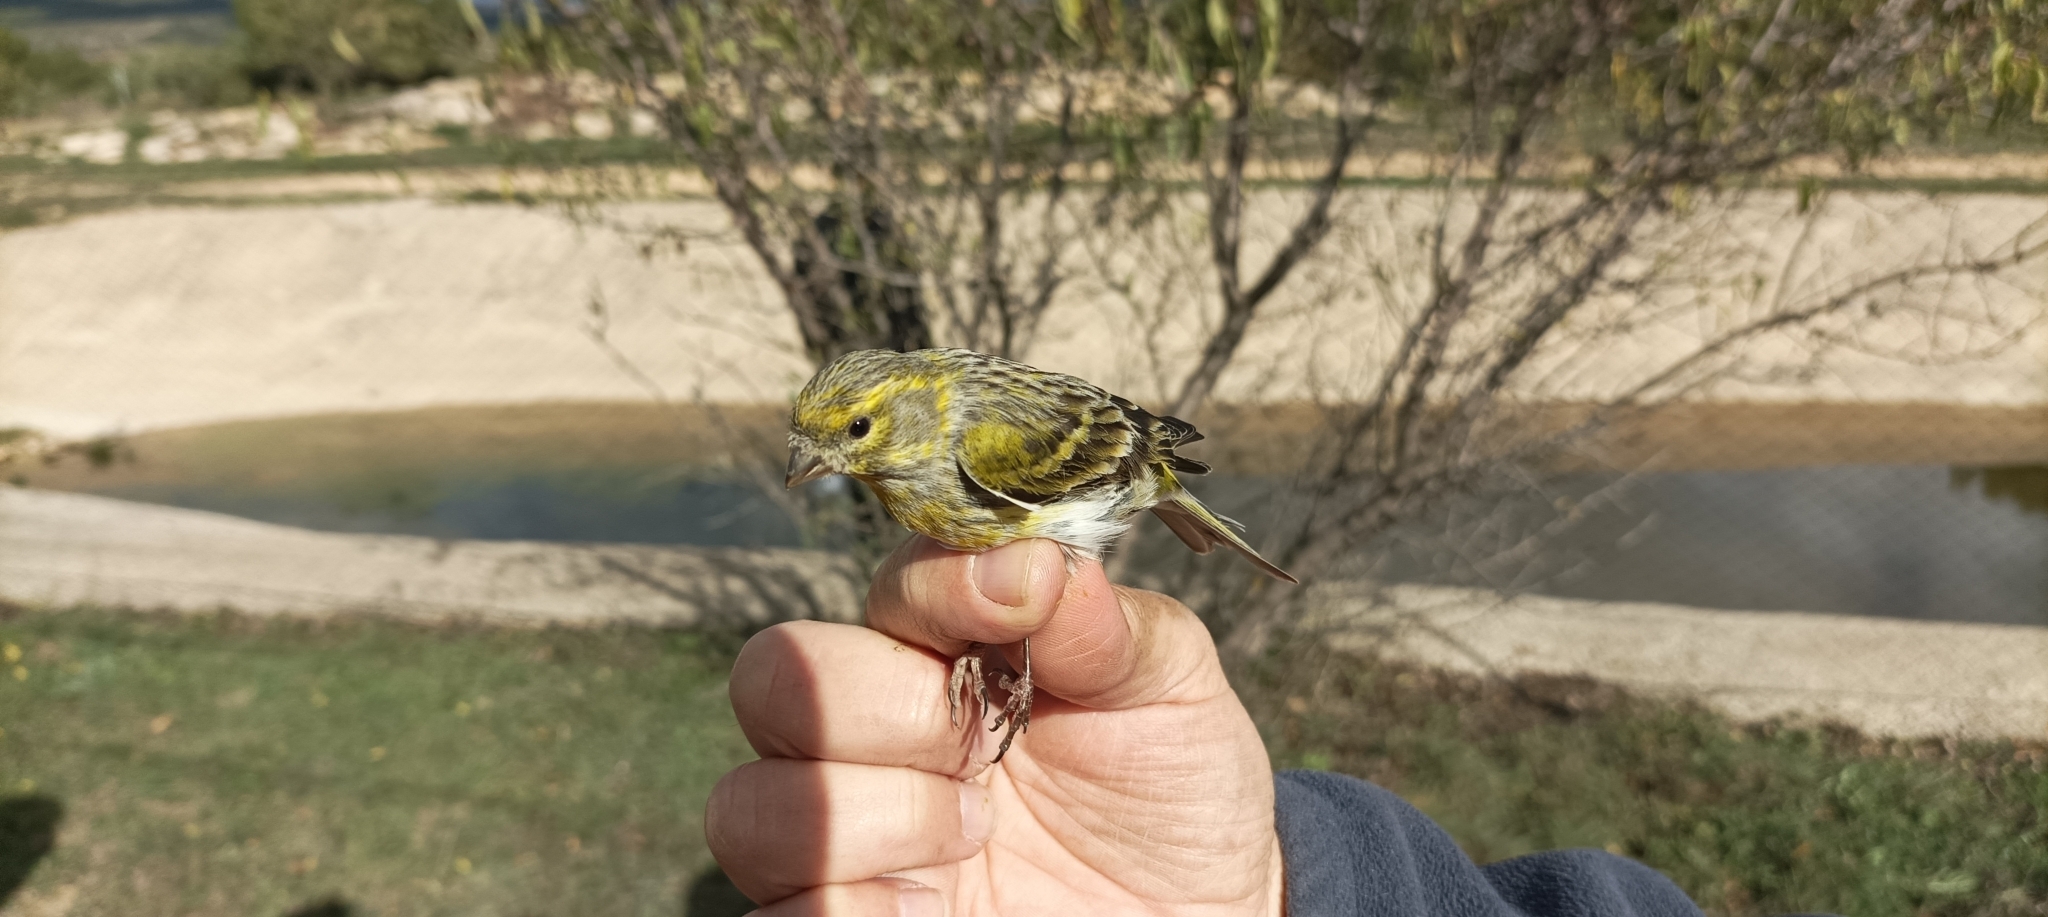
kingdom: Animalia
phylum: Chordata
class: Aves
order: Passeriformes
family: Fringillidae
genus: Serinus
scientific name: Serinus serinus
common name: European serin
